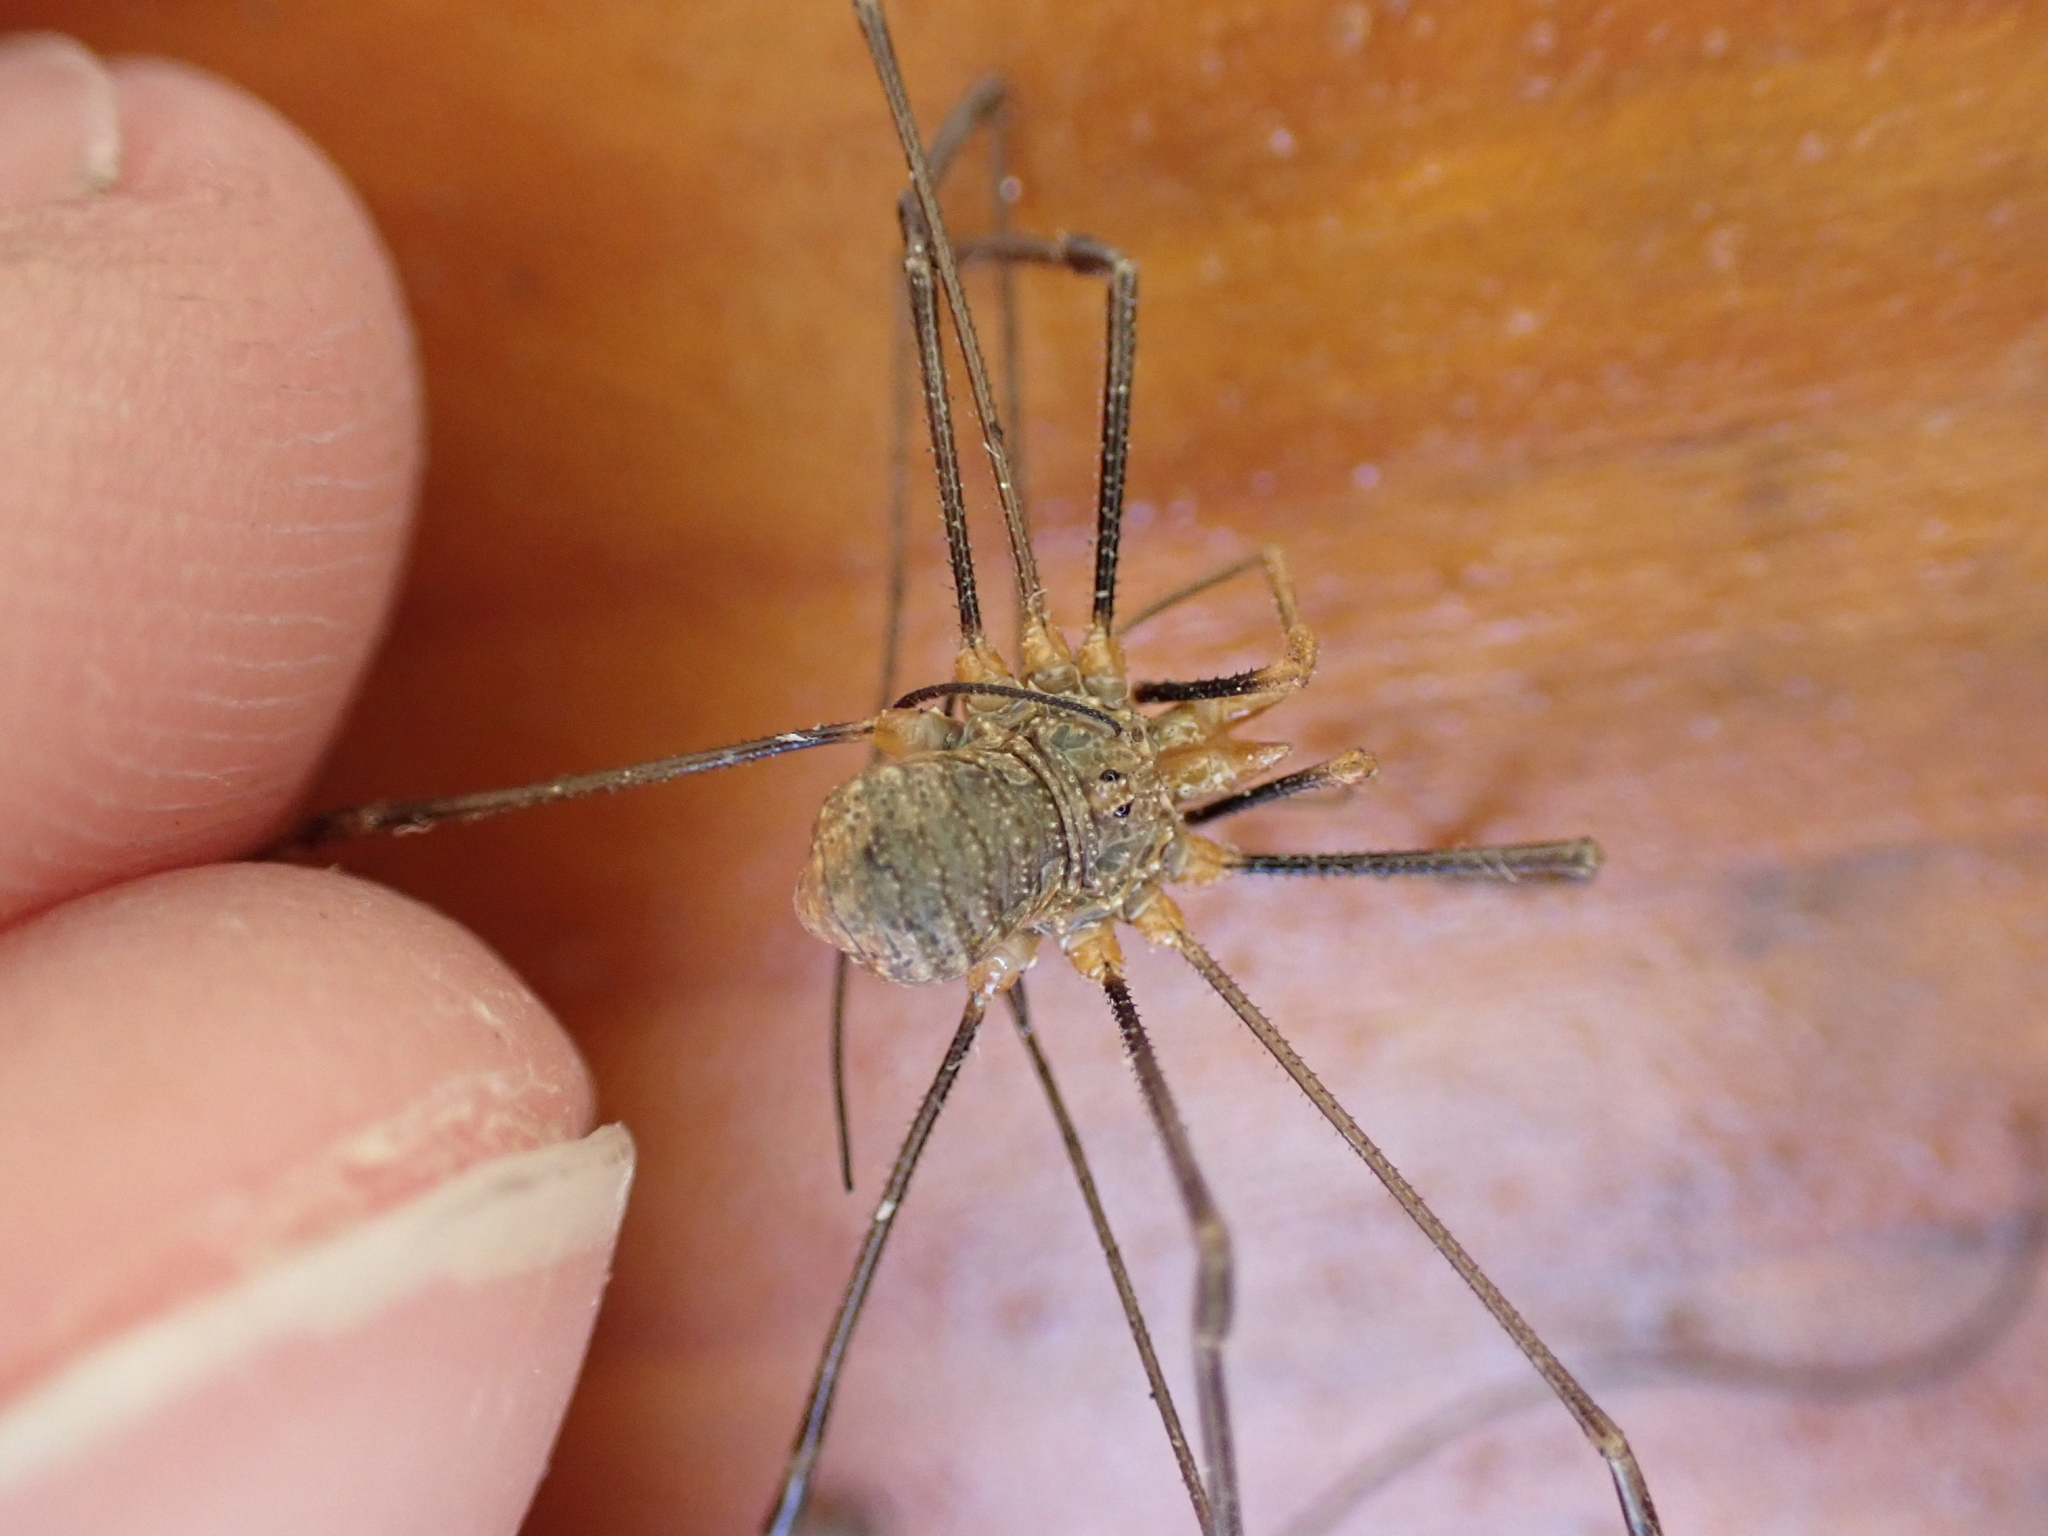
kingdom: Animalia
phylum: Arthropoda
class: Arachnida
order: Opiliones
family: Phalangiidae
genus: Phalangium
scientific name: Phalangium opilio
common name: Daddy longleg
